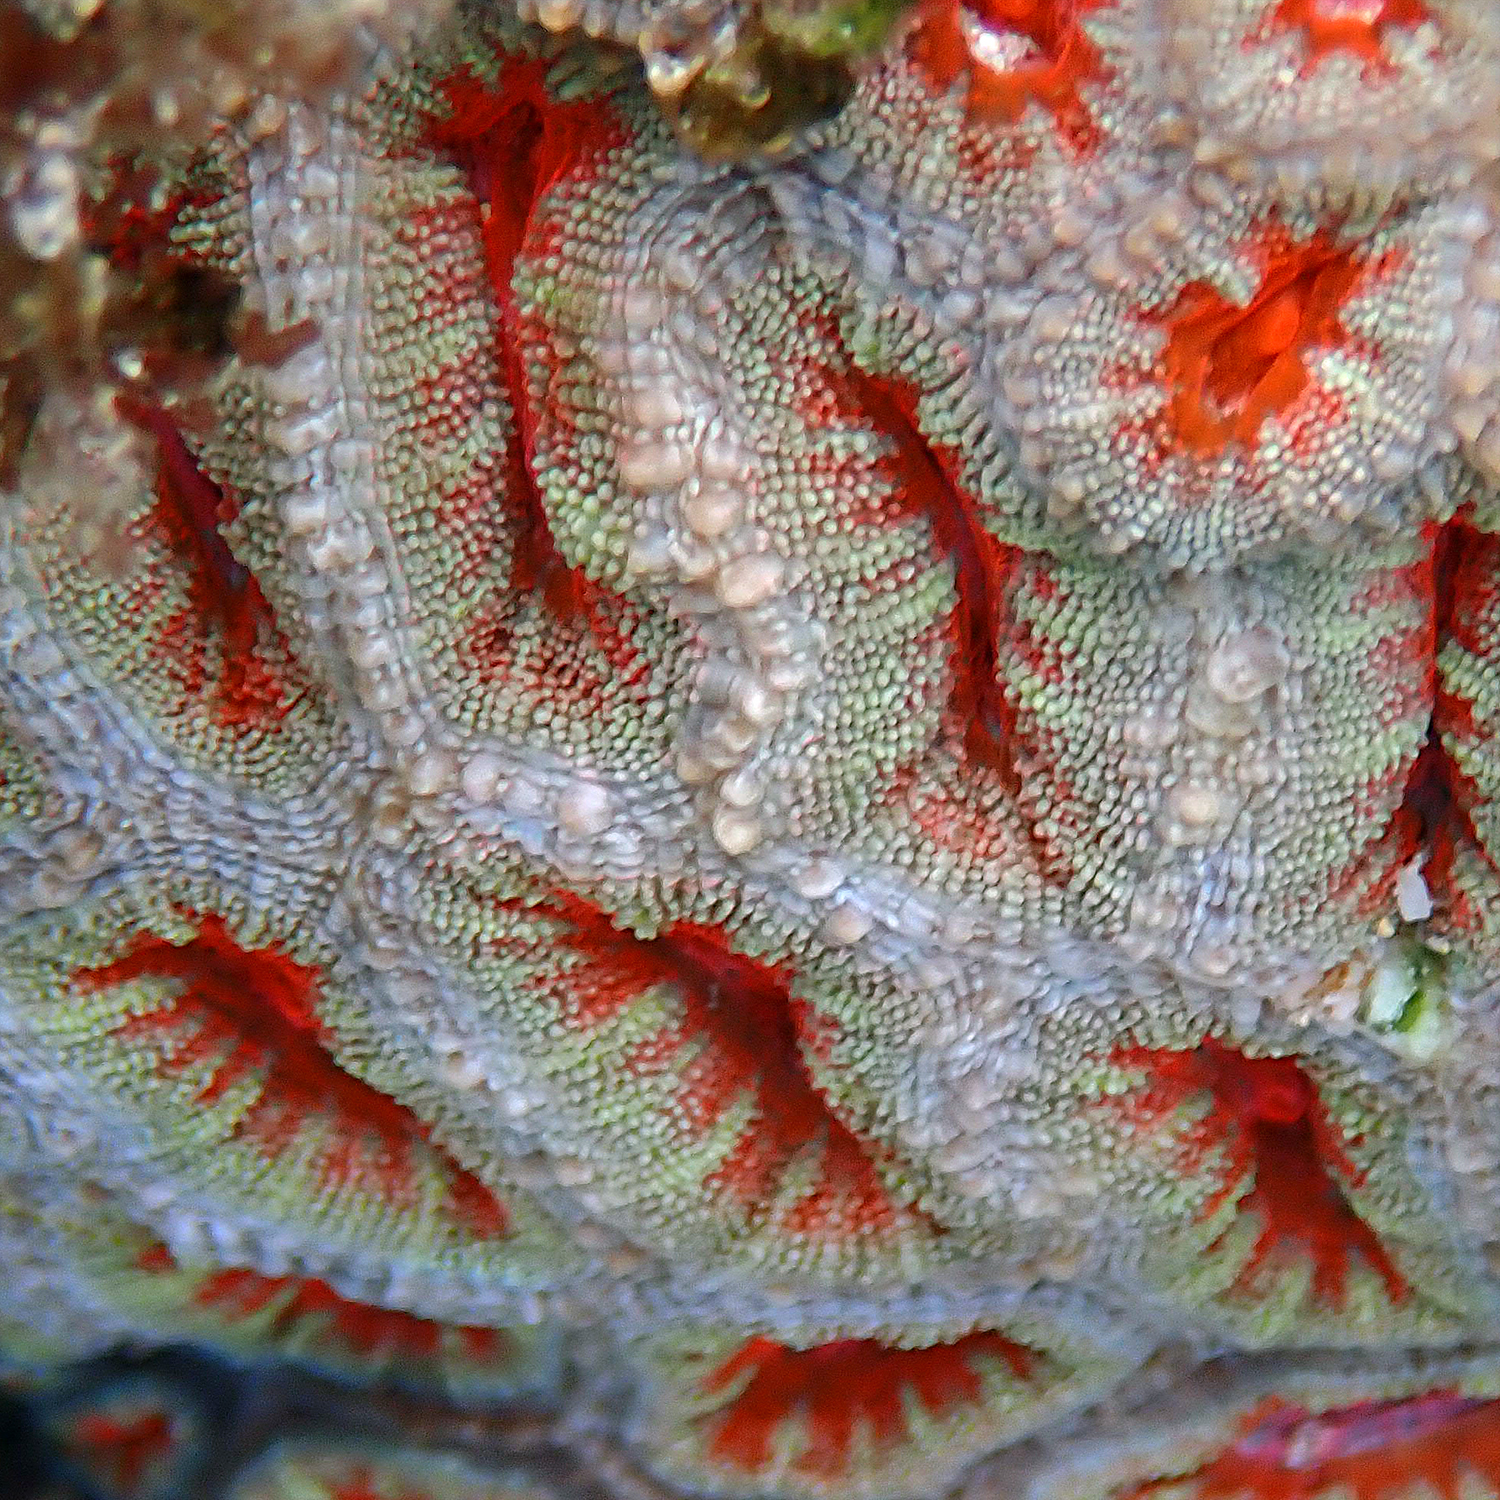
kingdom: Animalia
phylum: Cnidaria
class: Anthozoa
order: Scleractinia
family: Lobophylliidae
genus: Micromussa
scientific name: Micromussa lordhowensis
